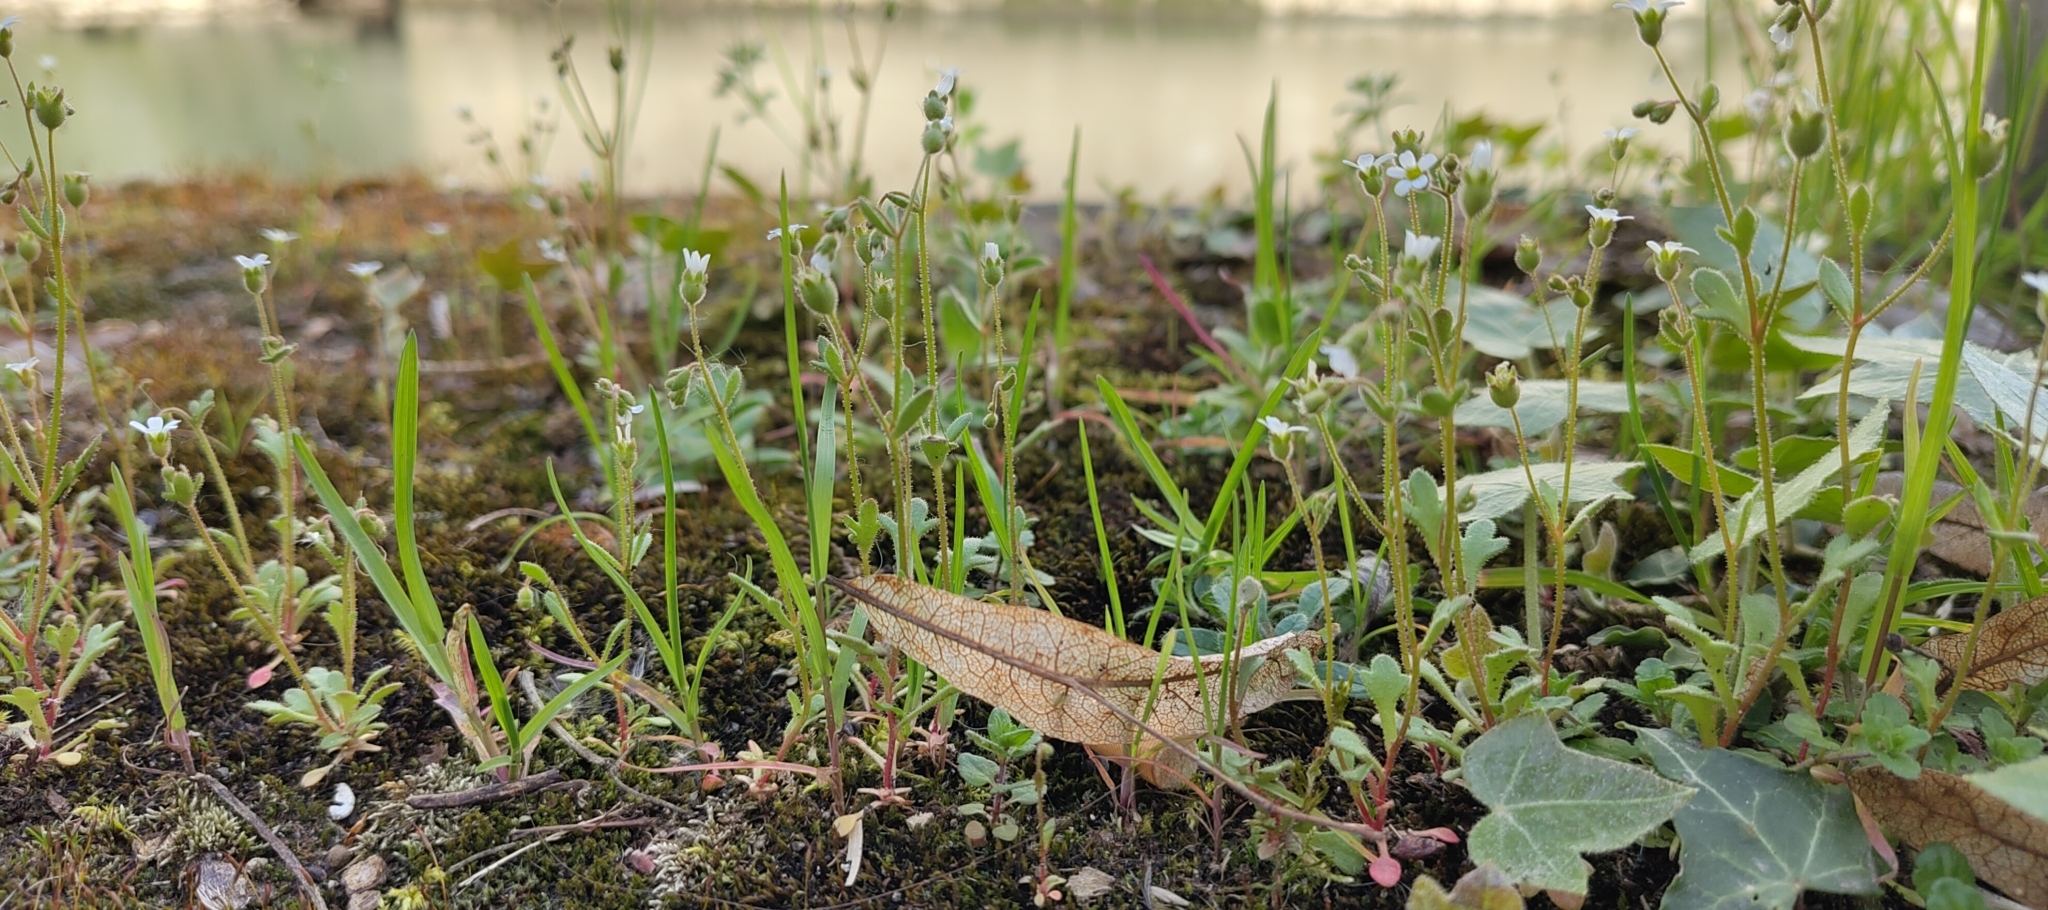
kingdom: Plantae
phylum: Tracheophyta
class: Magnoliopsida
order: Saxifragales
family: Saxifragaceae
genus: Saxifraga
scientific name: Saxifraga tridactylites
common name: Rue-leaved saxifrage
